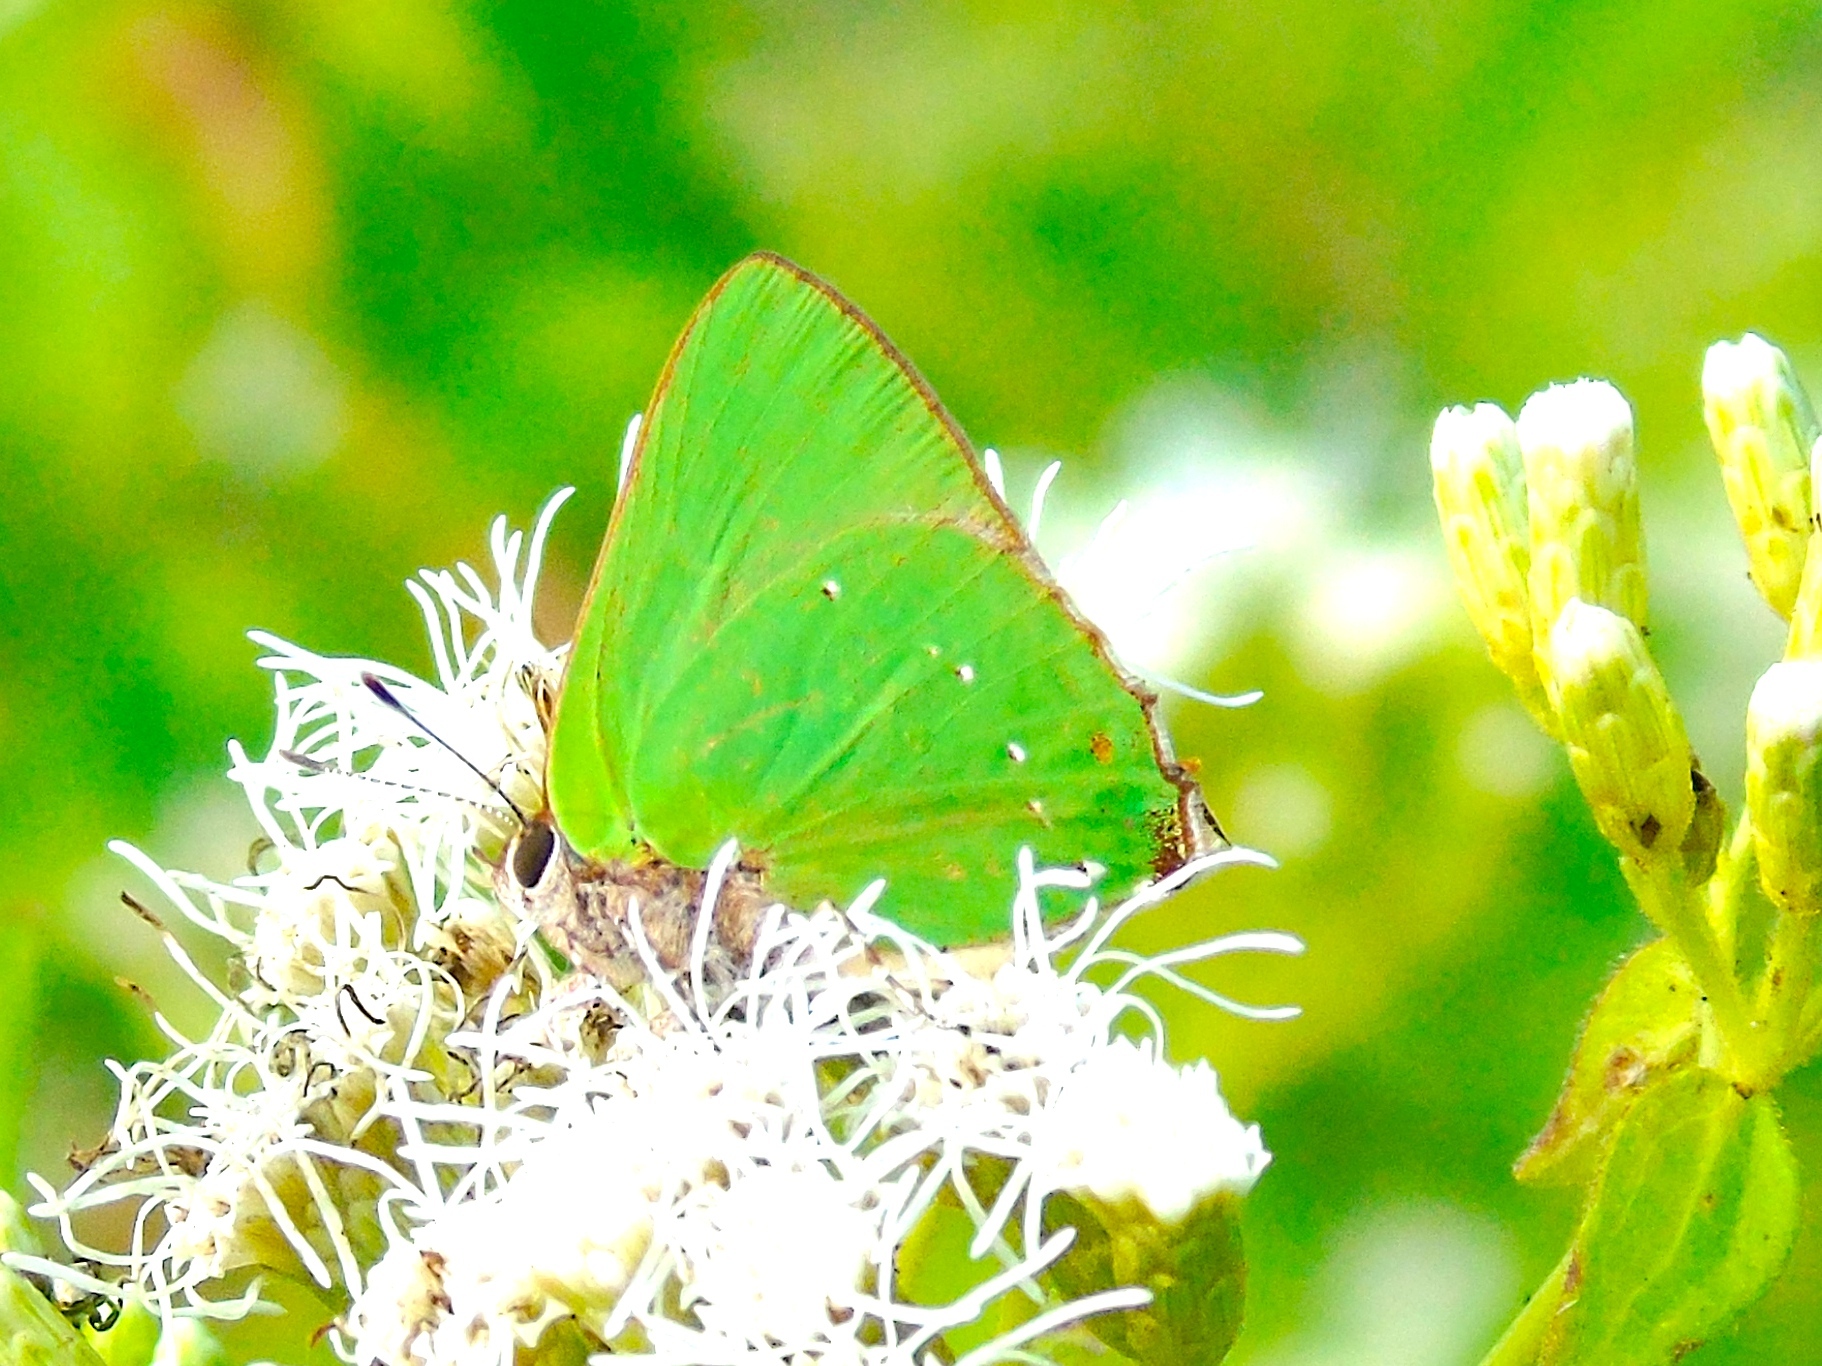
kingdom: Animalia
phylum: Arthropoda
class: Insecta
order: Lepidoptera
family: Lycaenidae
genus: Thecla
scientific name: Thecla herodotus
